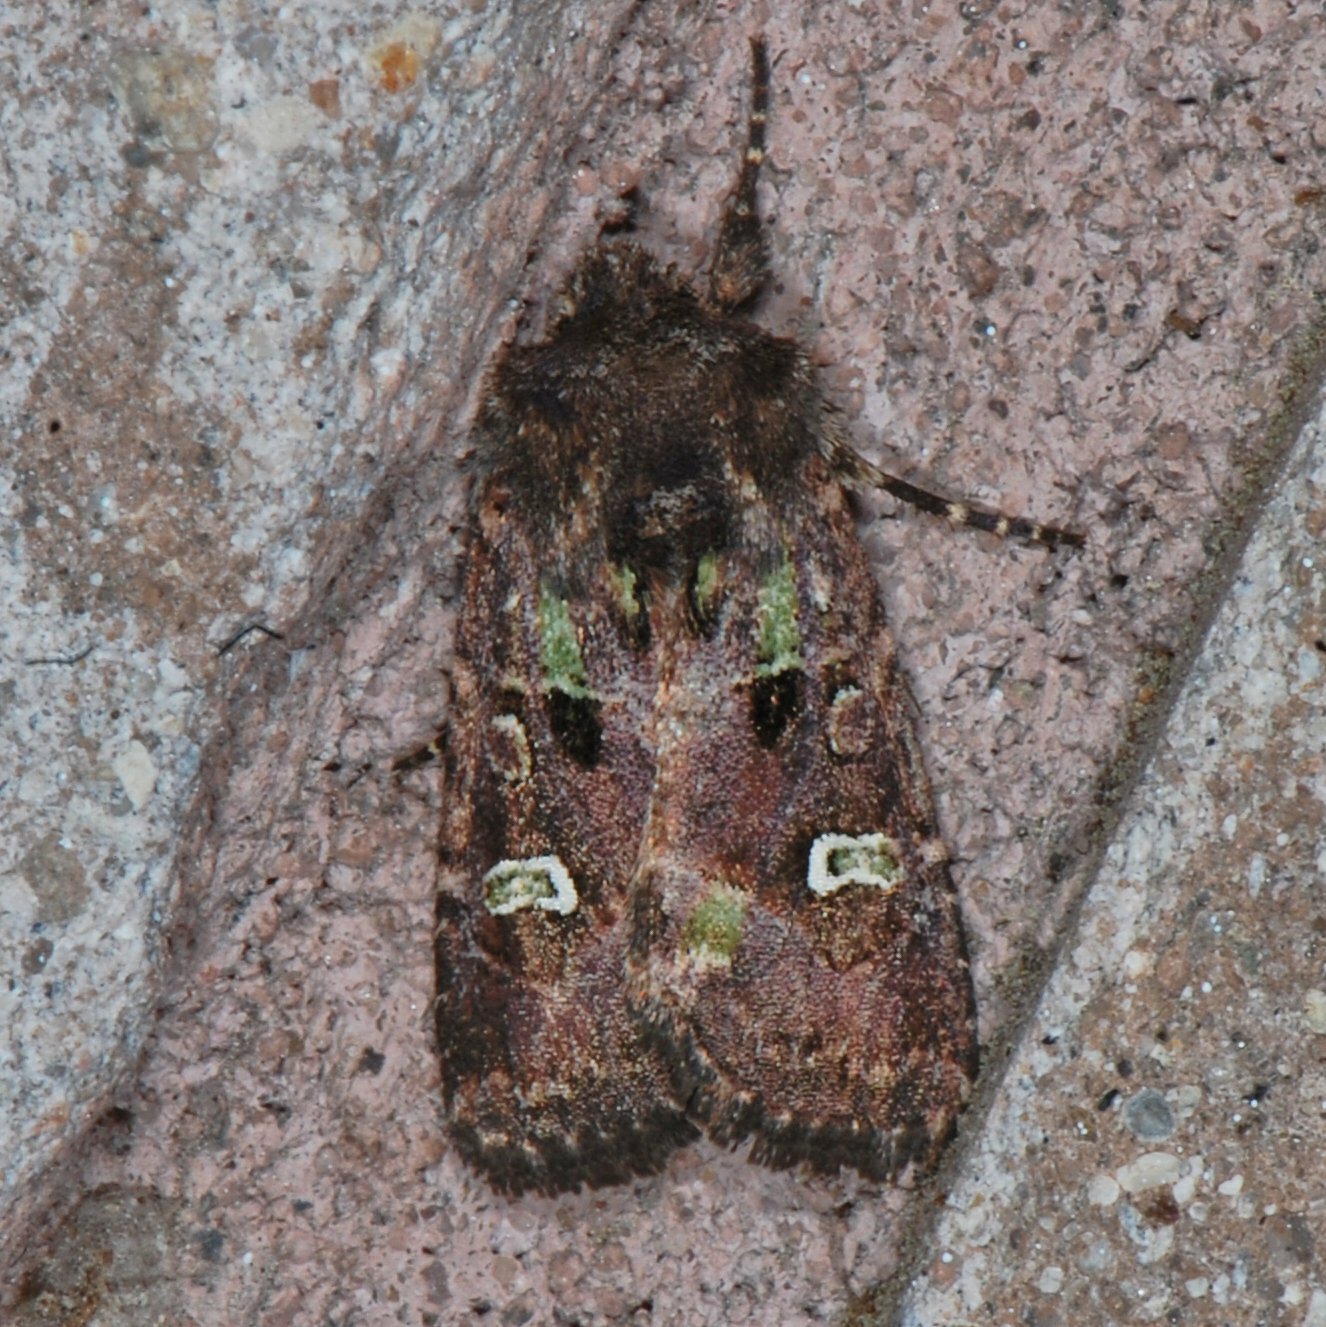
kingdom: Animalia
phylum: Arthropoda
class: Insecta
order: Lepidoptera
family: Noctuidae
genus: Lacinipolia
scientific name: Lacinipolia renigera
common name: Kidney-spotted minor
